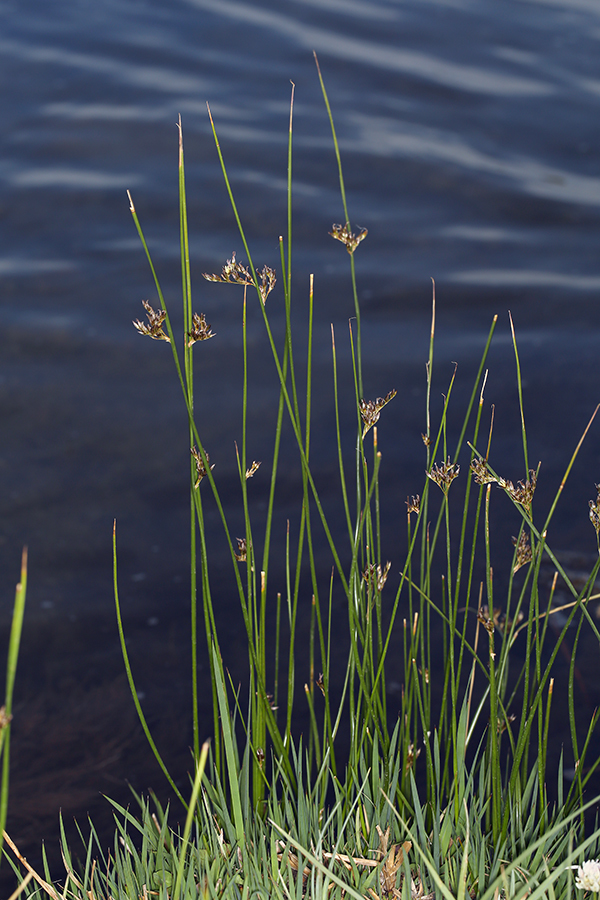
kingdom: Plantae
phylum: Tracheophyta
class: Liliopsida
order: Poales
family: Juncaceae
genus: Juncus
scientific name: Juncus balticus
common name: Baltic rush
